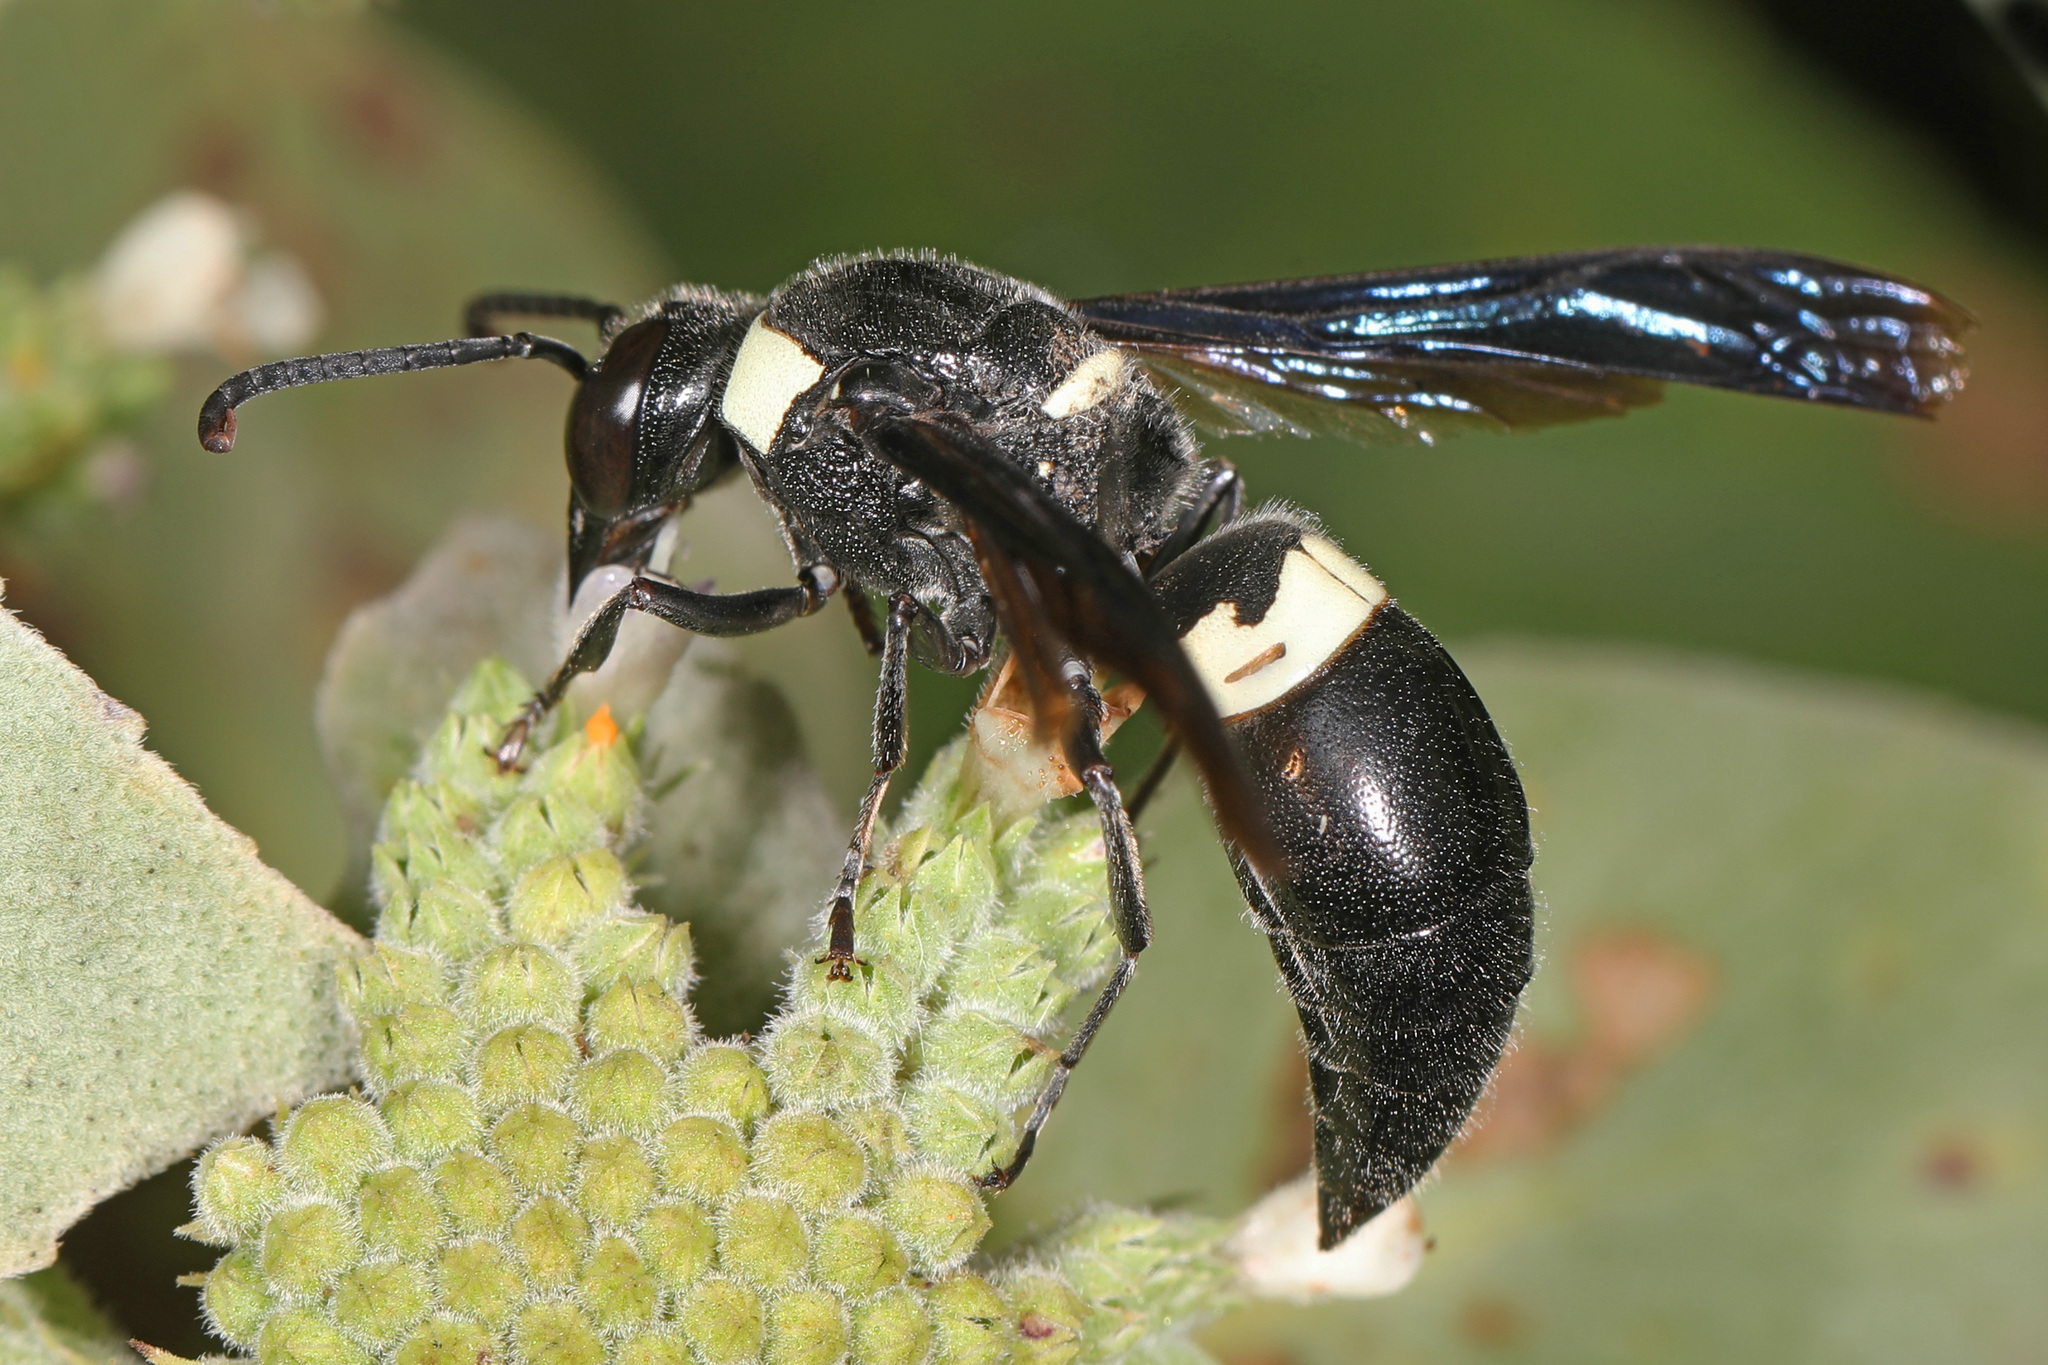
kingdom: Animalia
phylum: Arthropoda
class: Insecta
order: Hymenoptera
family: Eumenidae
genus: Monobia
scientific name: Monobia quadridens
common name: Four-toothed mason wasp
